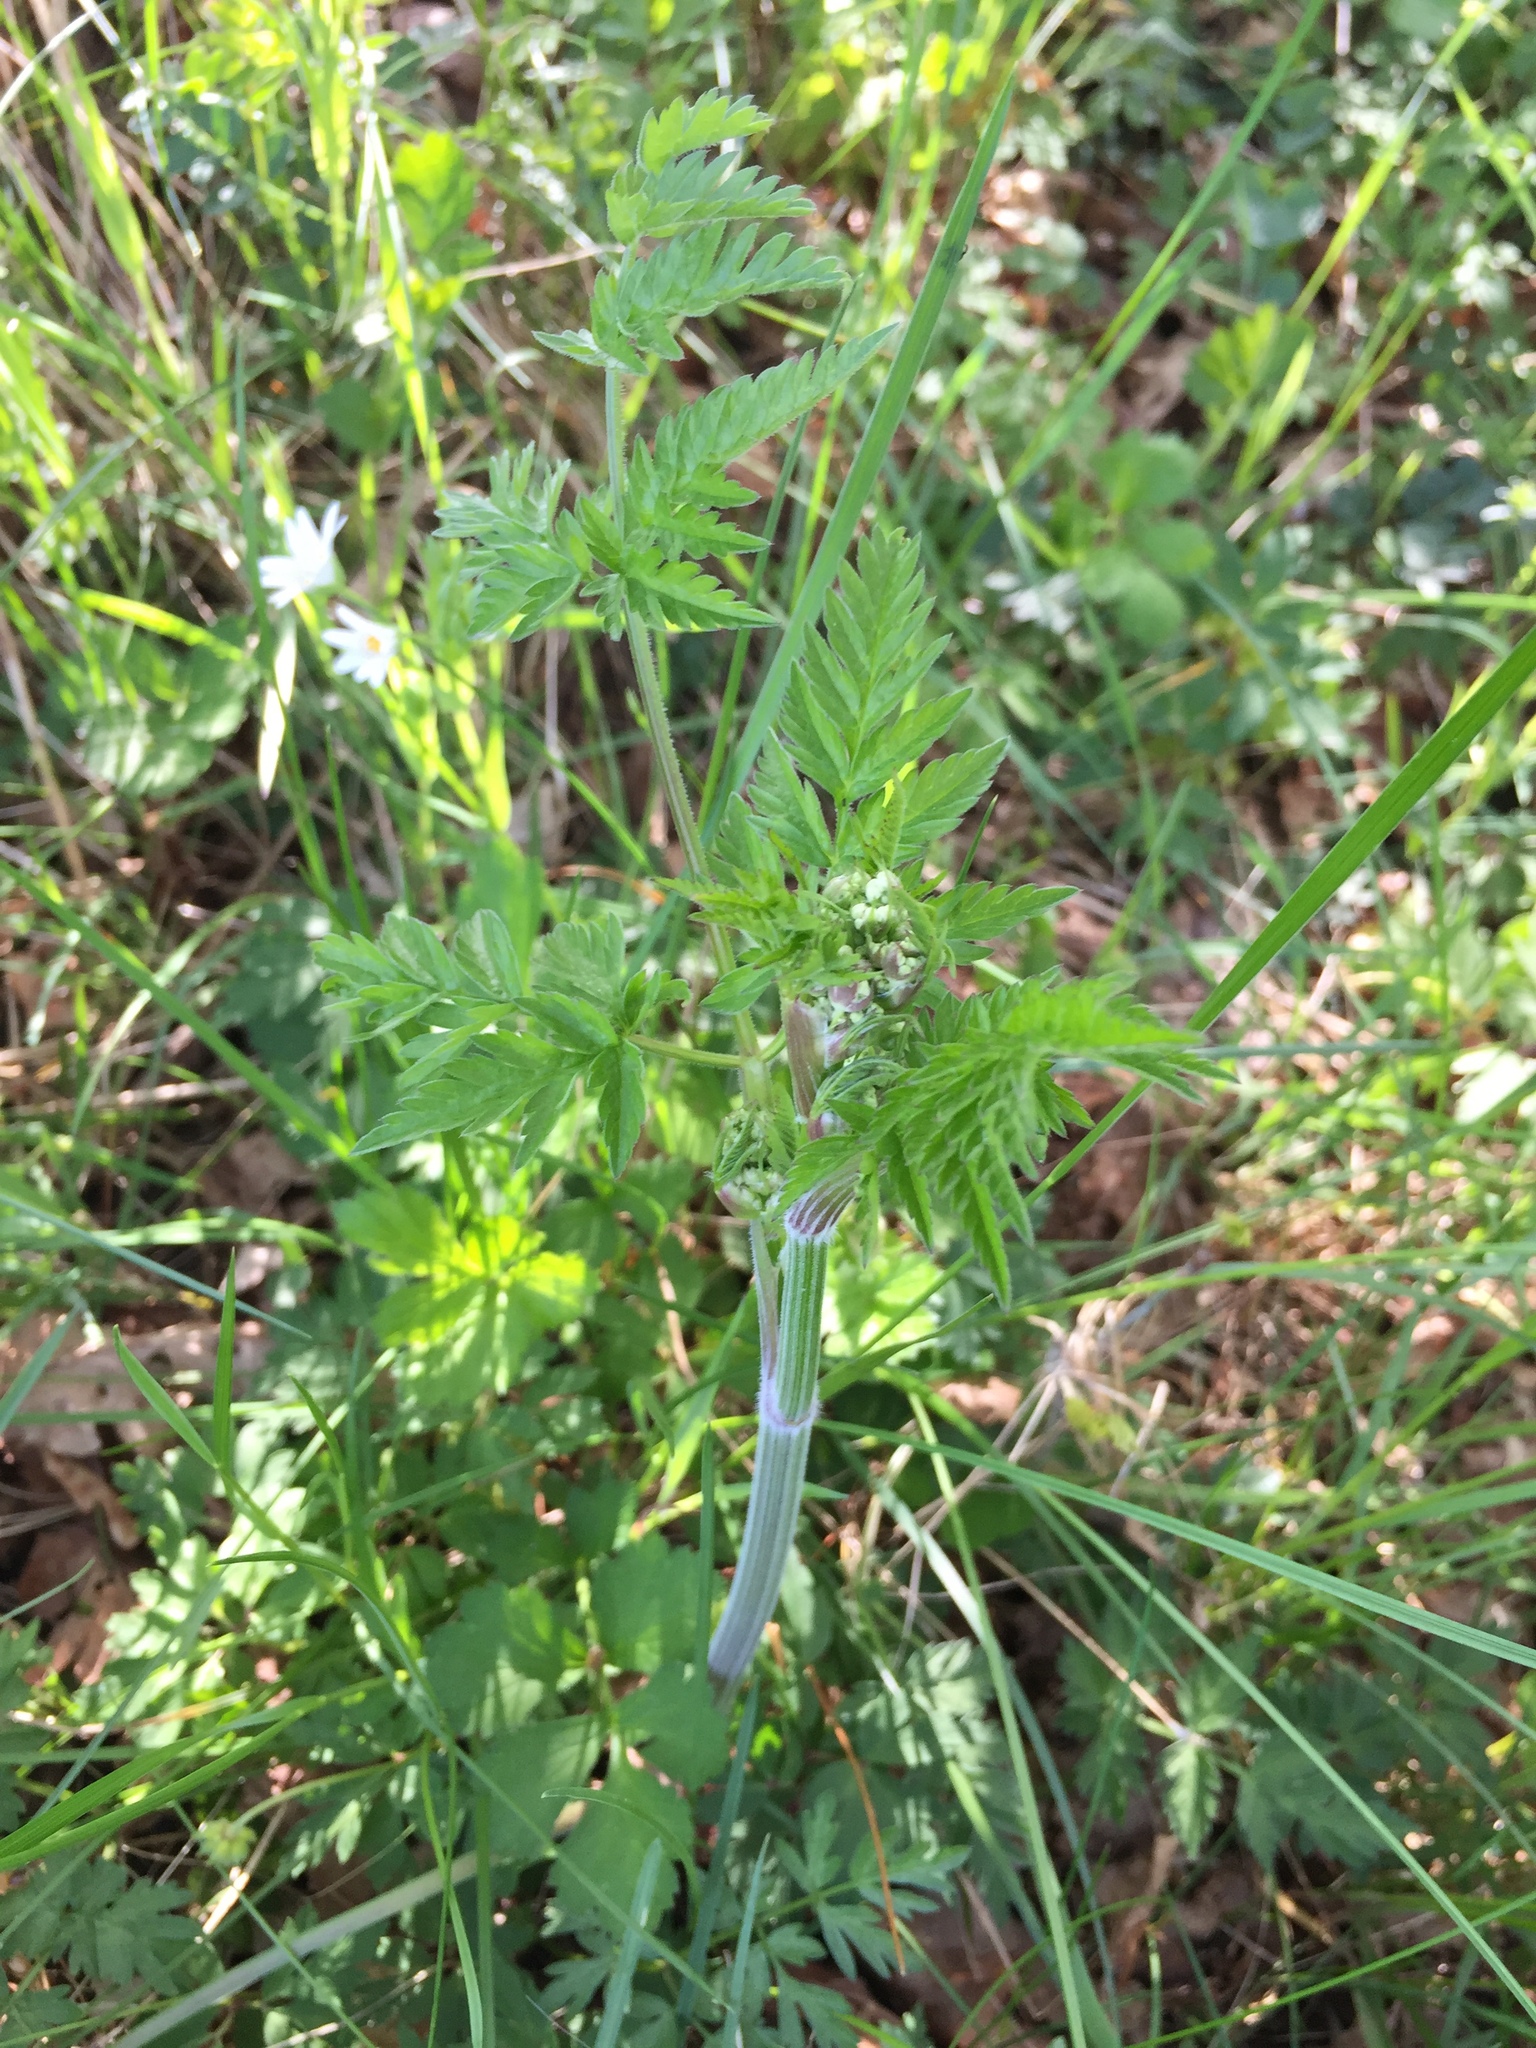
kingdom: Plantae
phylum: Tracheophyta
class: Magnoliopsida
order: Apiales
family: Apiaceae
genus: Anthriscus
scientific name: Anthriscus sylvestris
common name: Cow parsley
